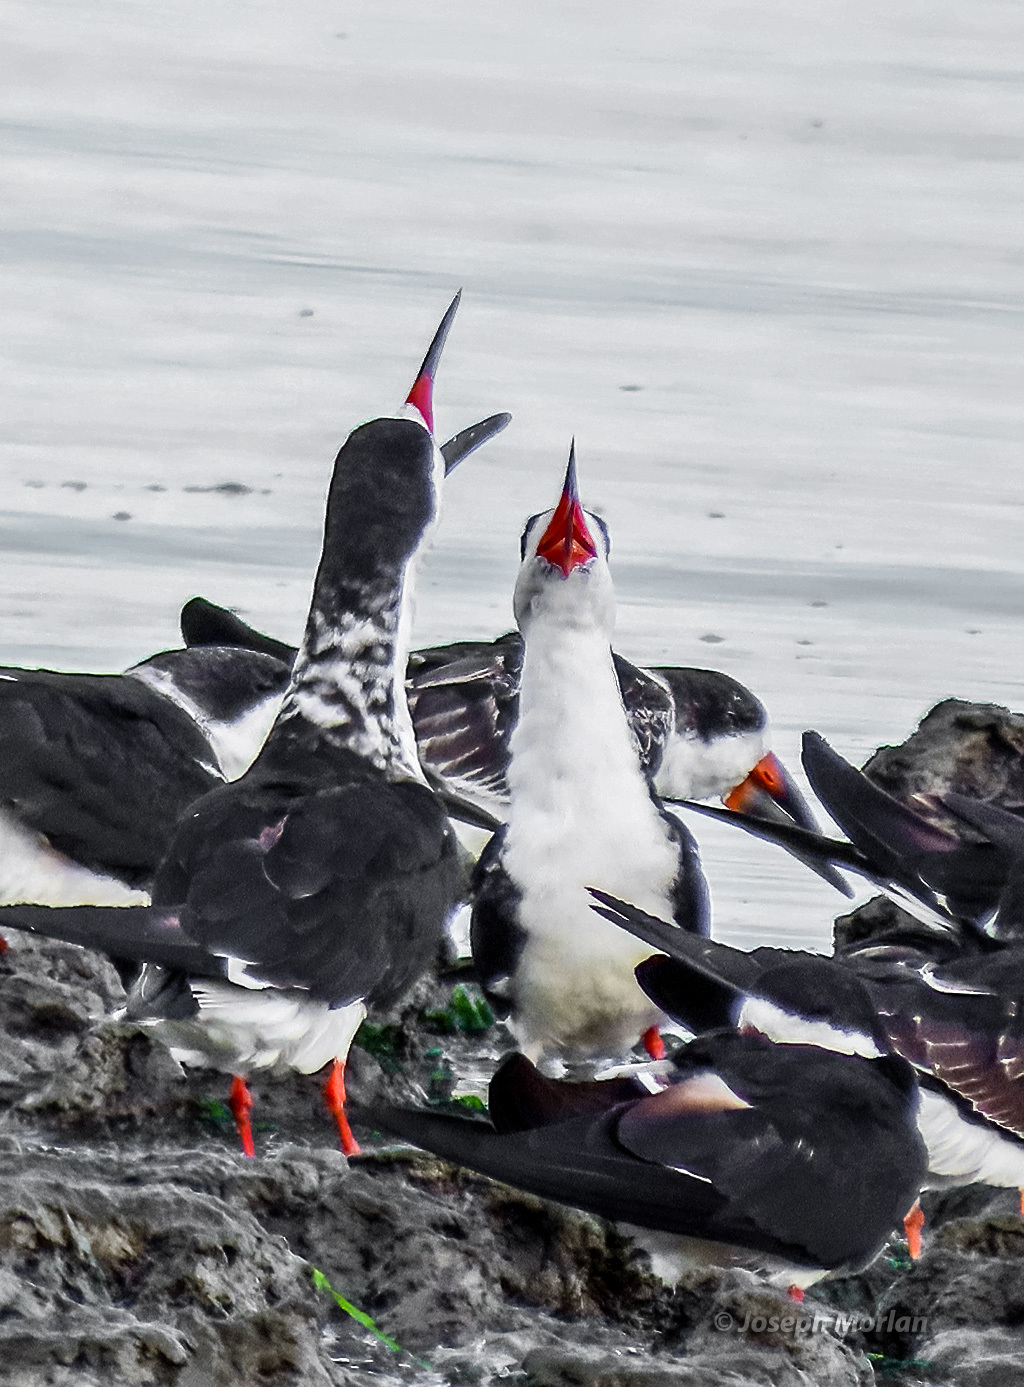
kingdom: Animalia
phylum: Chordata
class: Aves
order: Charadriiformes
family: Laridae
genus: Rynchops
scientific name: Rynchops niger
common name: Black skimmer
